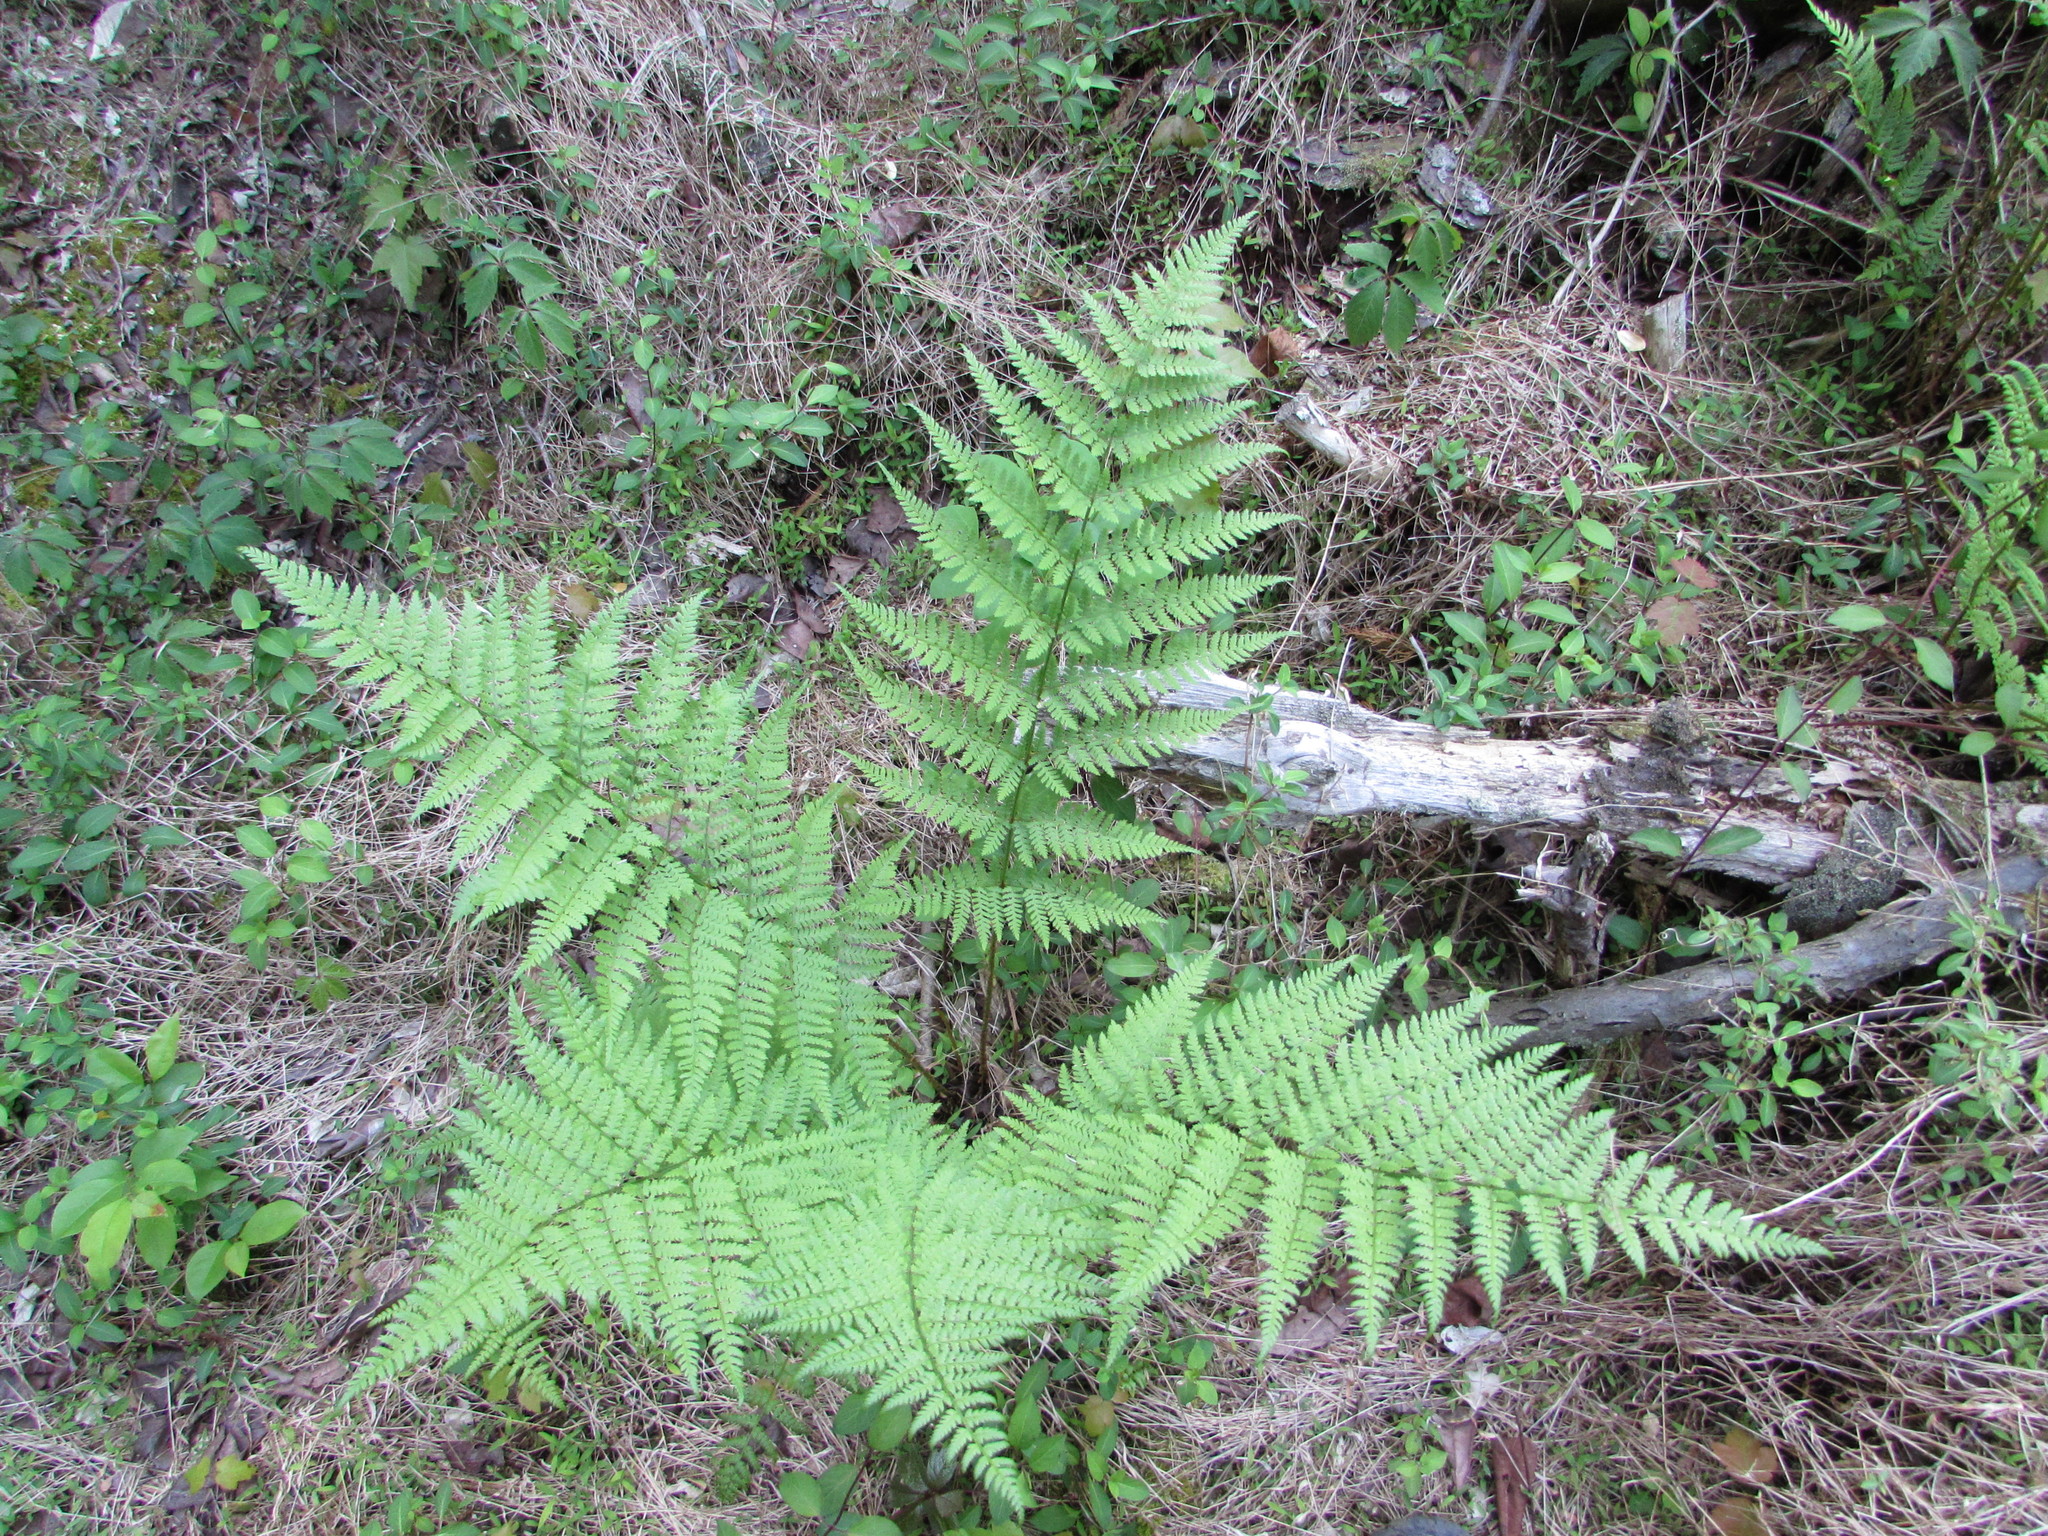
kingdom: Plantae
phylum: Tracheophyta
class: Polypodiopsida
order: Polypodiales
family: Dryopteridaceae
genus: Dryopteris
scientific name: Dryopteris intermedia
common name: Evergreen wood fern
